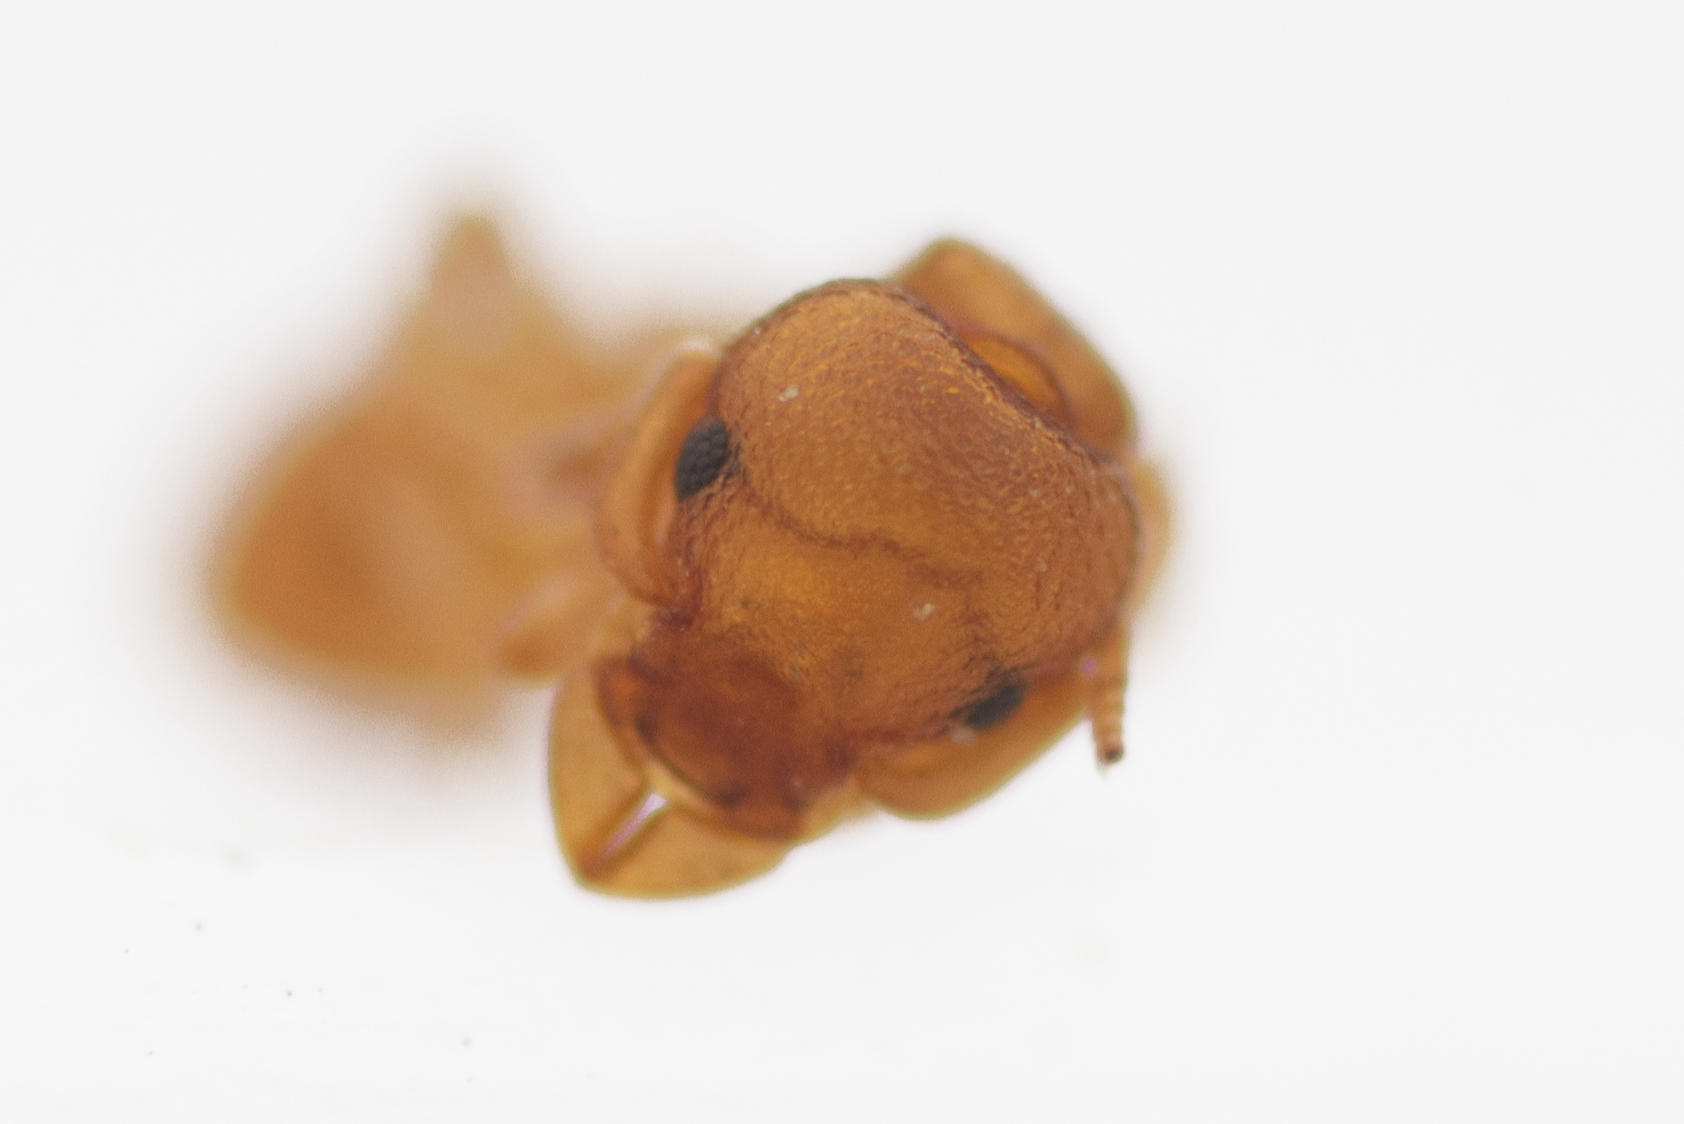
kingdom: Animalia
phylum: Arthropoda
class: Insecta
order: Hymenoptera
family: Formicidae
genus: Colobostruma
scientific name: Colobostruma
